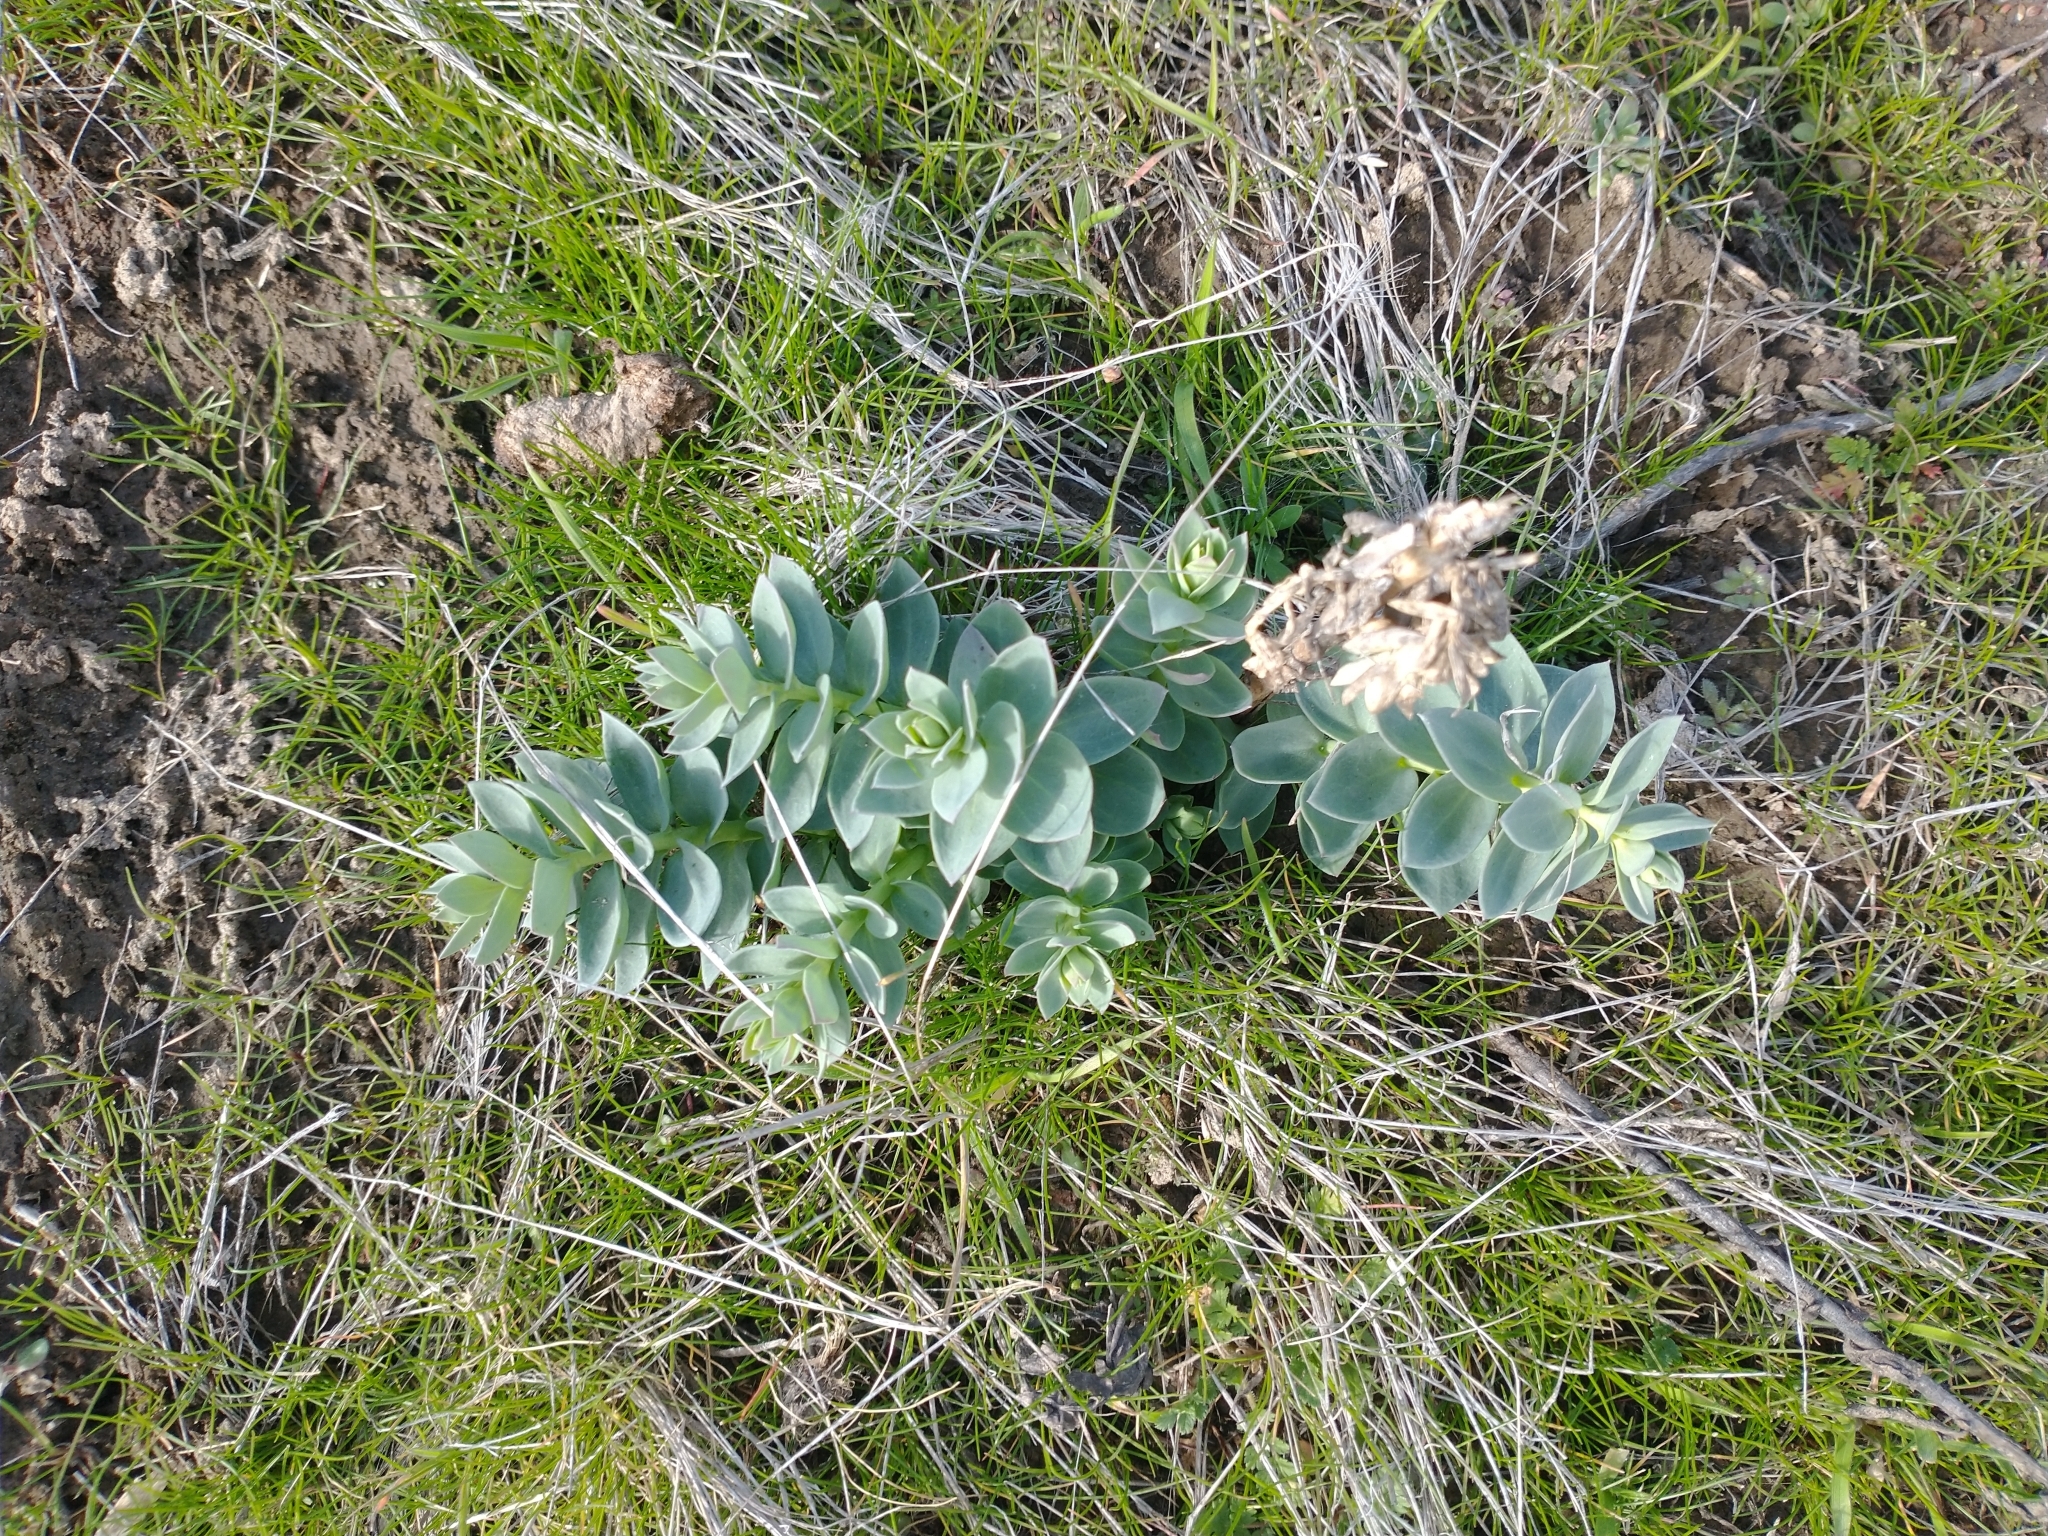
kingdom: Plantae
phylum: Tracheophyta
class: Magnoliopsida
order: Lamiales
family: Plantaginaceae
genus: Linaria
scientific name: Linaria dalmatica
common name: Dalmatian toadflax
